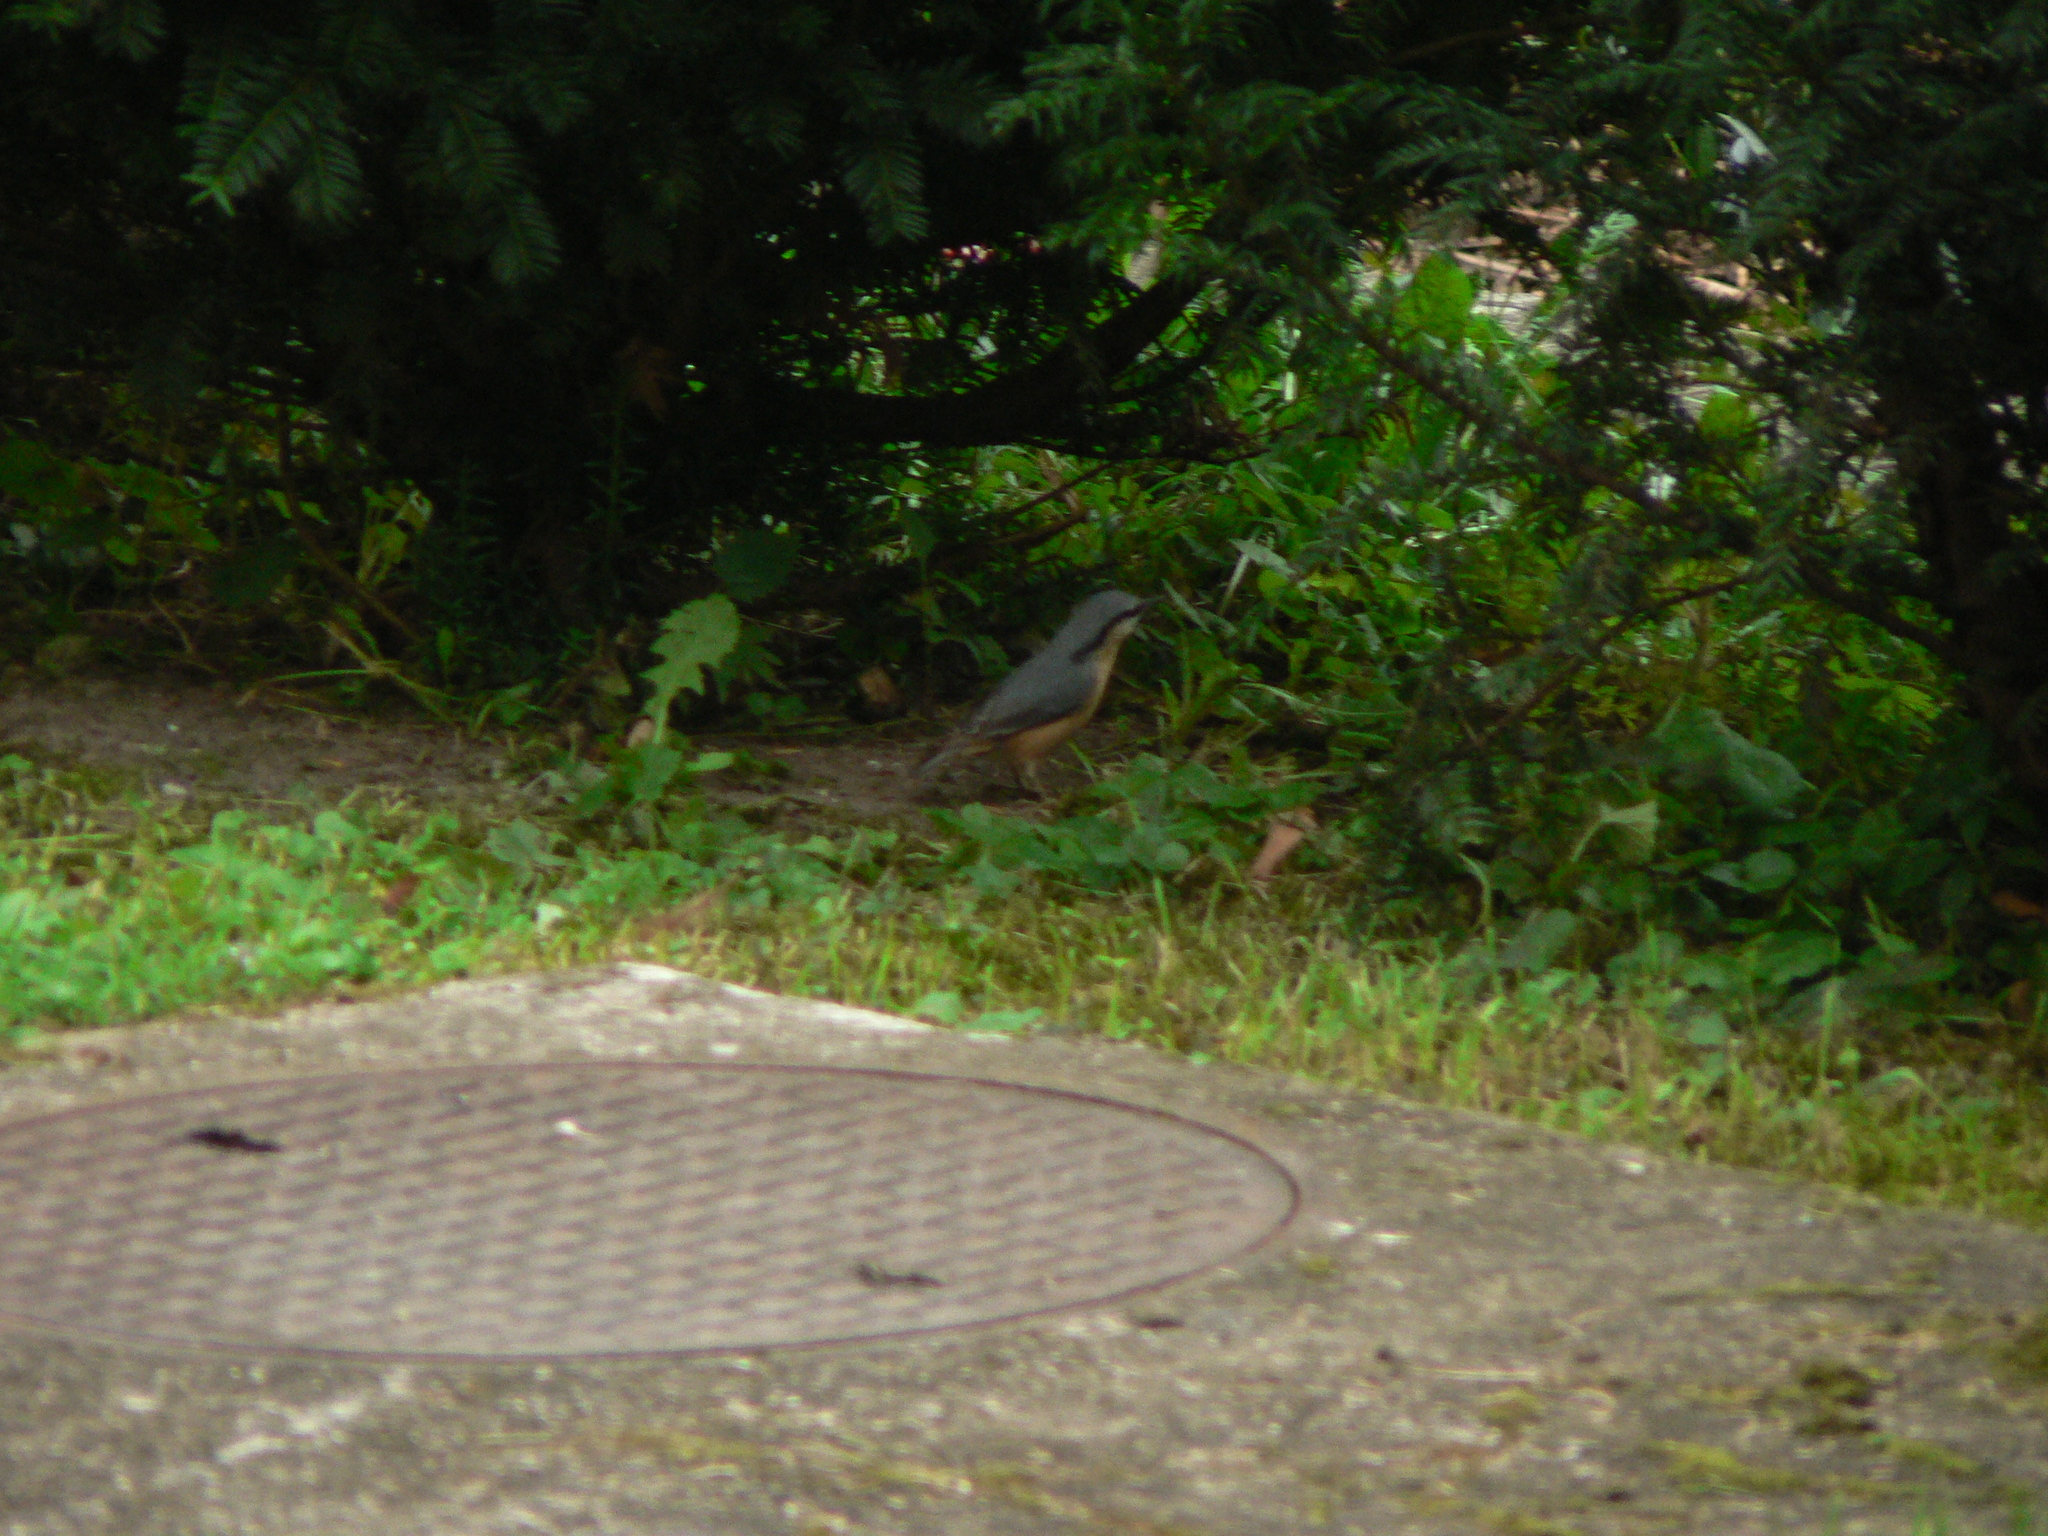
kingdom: Animalia
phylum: Chordata
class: Aves
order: Passeriformes
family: Sittidae
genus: Sitta
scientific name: Sitta europaea
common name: Eurasian nuthatch
